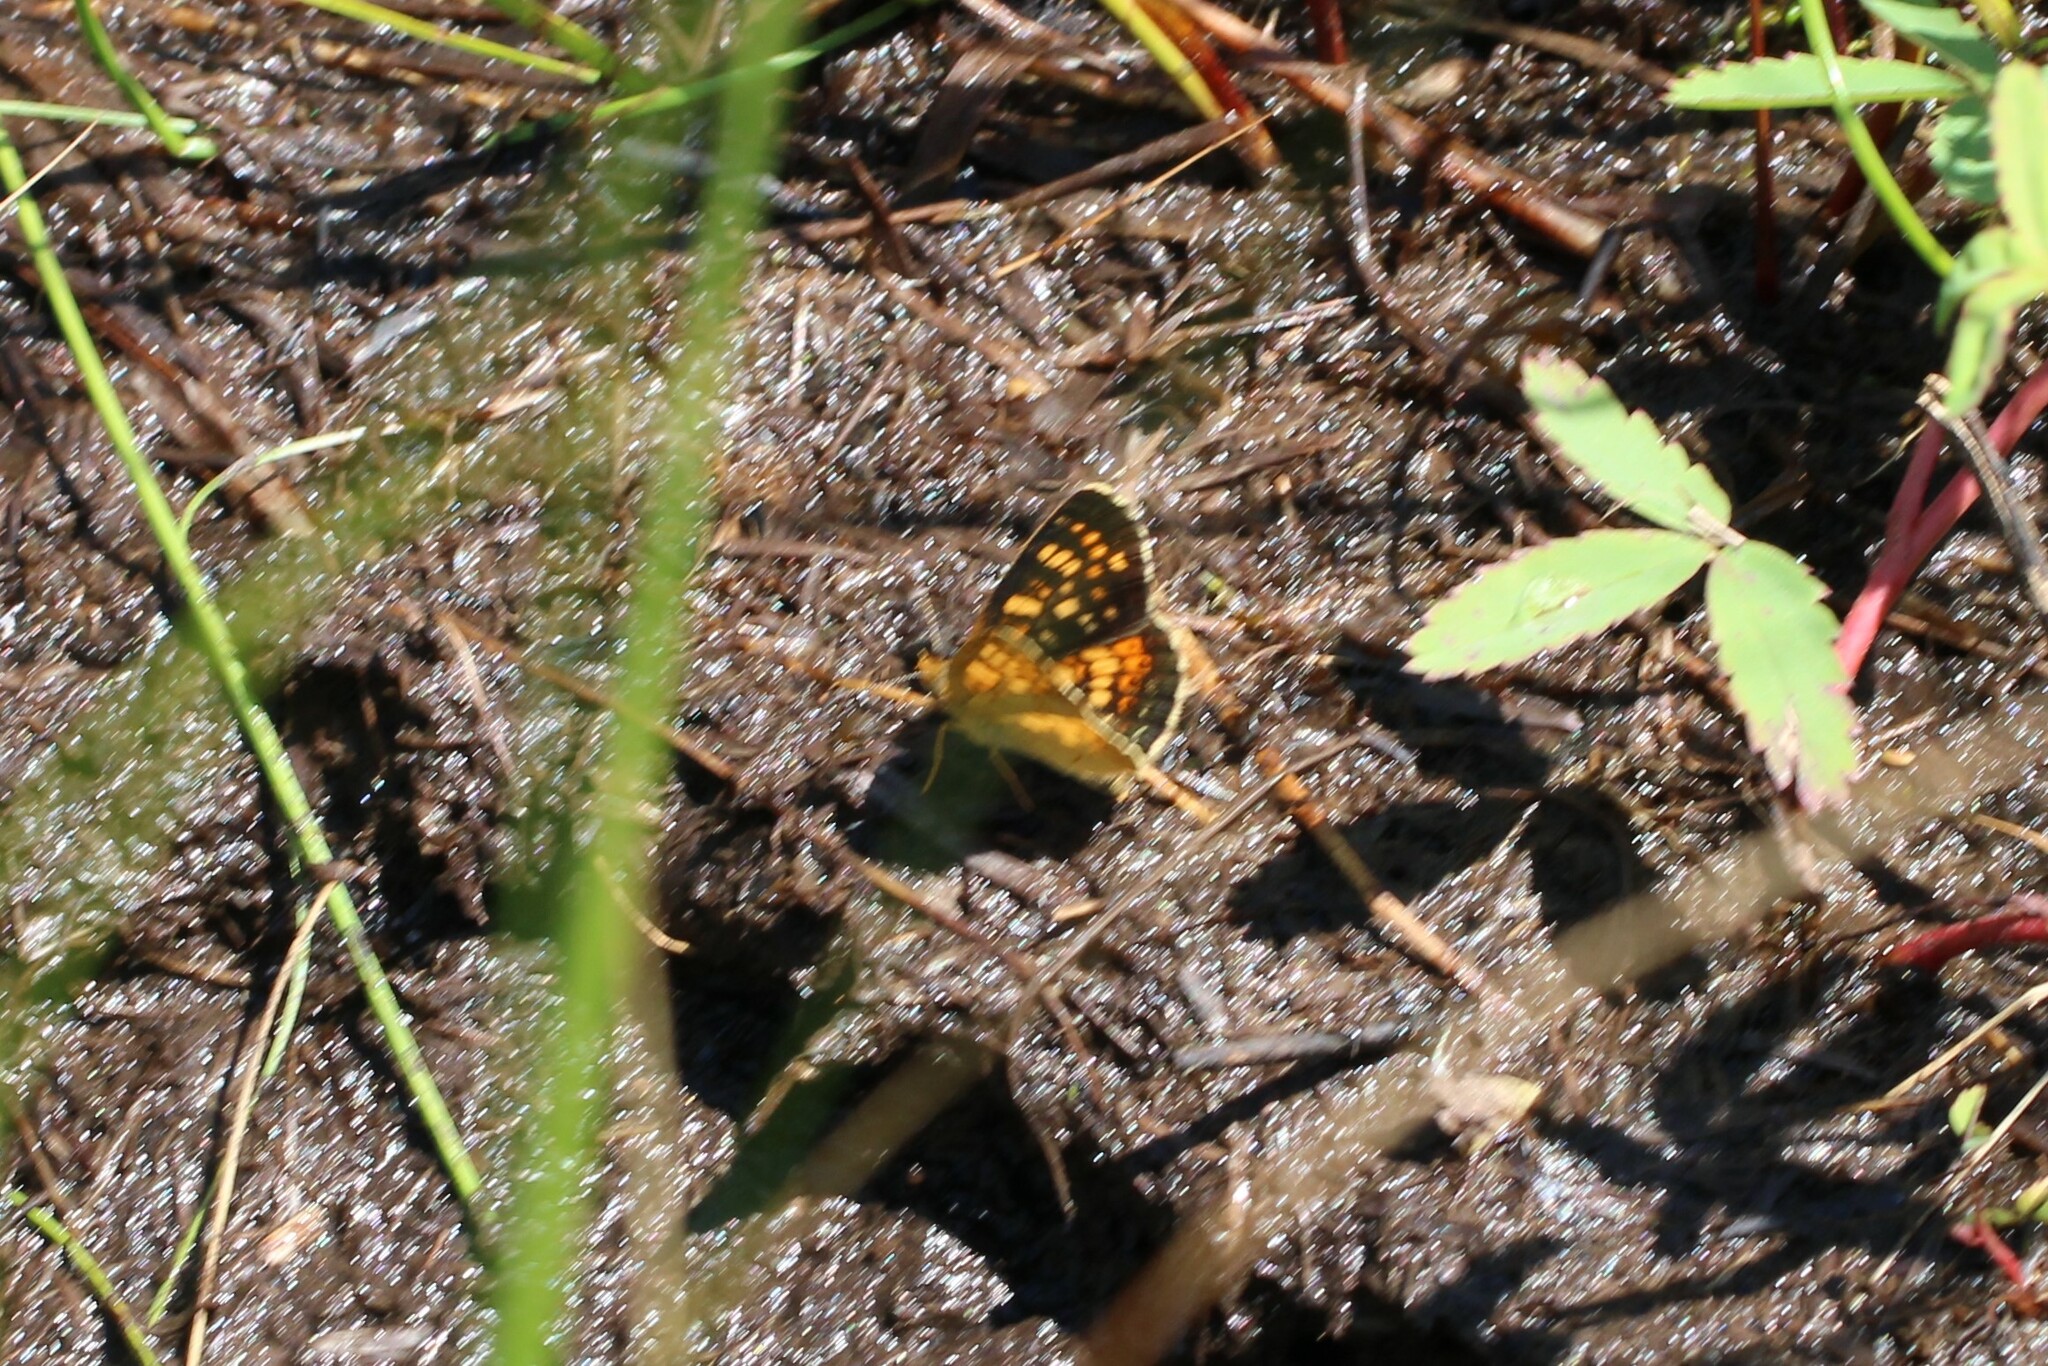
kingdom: Animalia
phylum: Arthropoda
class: Insecta
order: Lepidoptera
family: Nymphalidae
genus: Phyciodes
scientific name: Phyciodes tharos
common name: Pearl crescent
